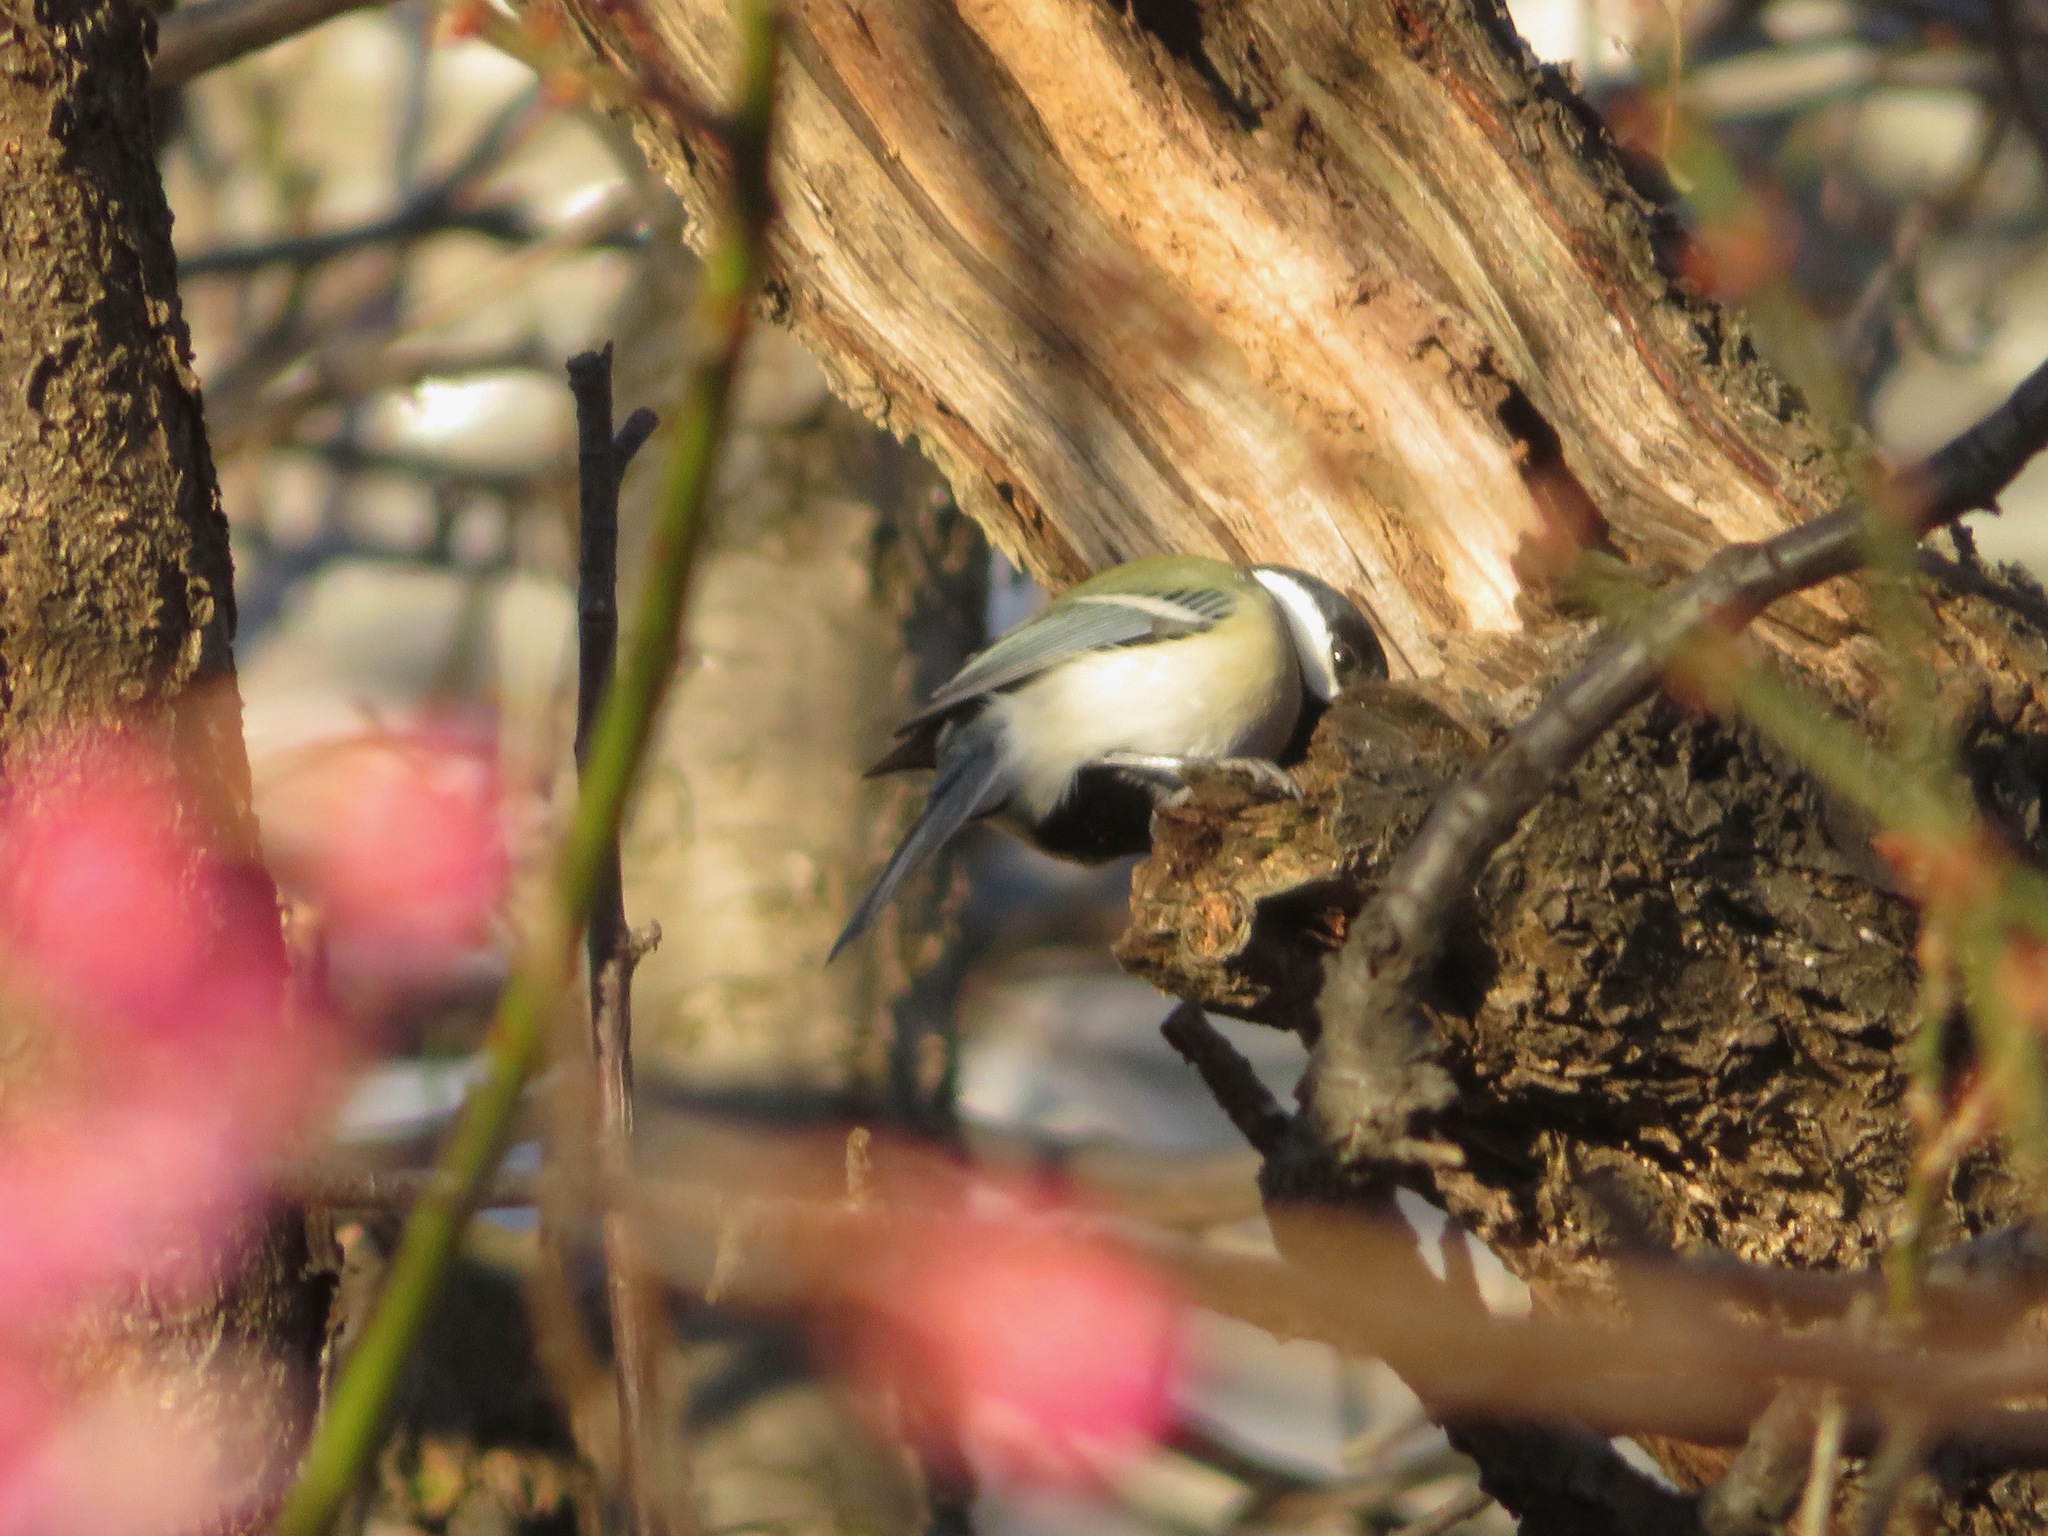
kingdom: Animalia
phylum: Chordata
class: Aves
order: Passeriformes
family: Paridae
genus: Parus
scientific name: Parus minor
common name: Japanese tit
